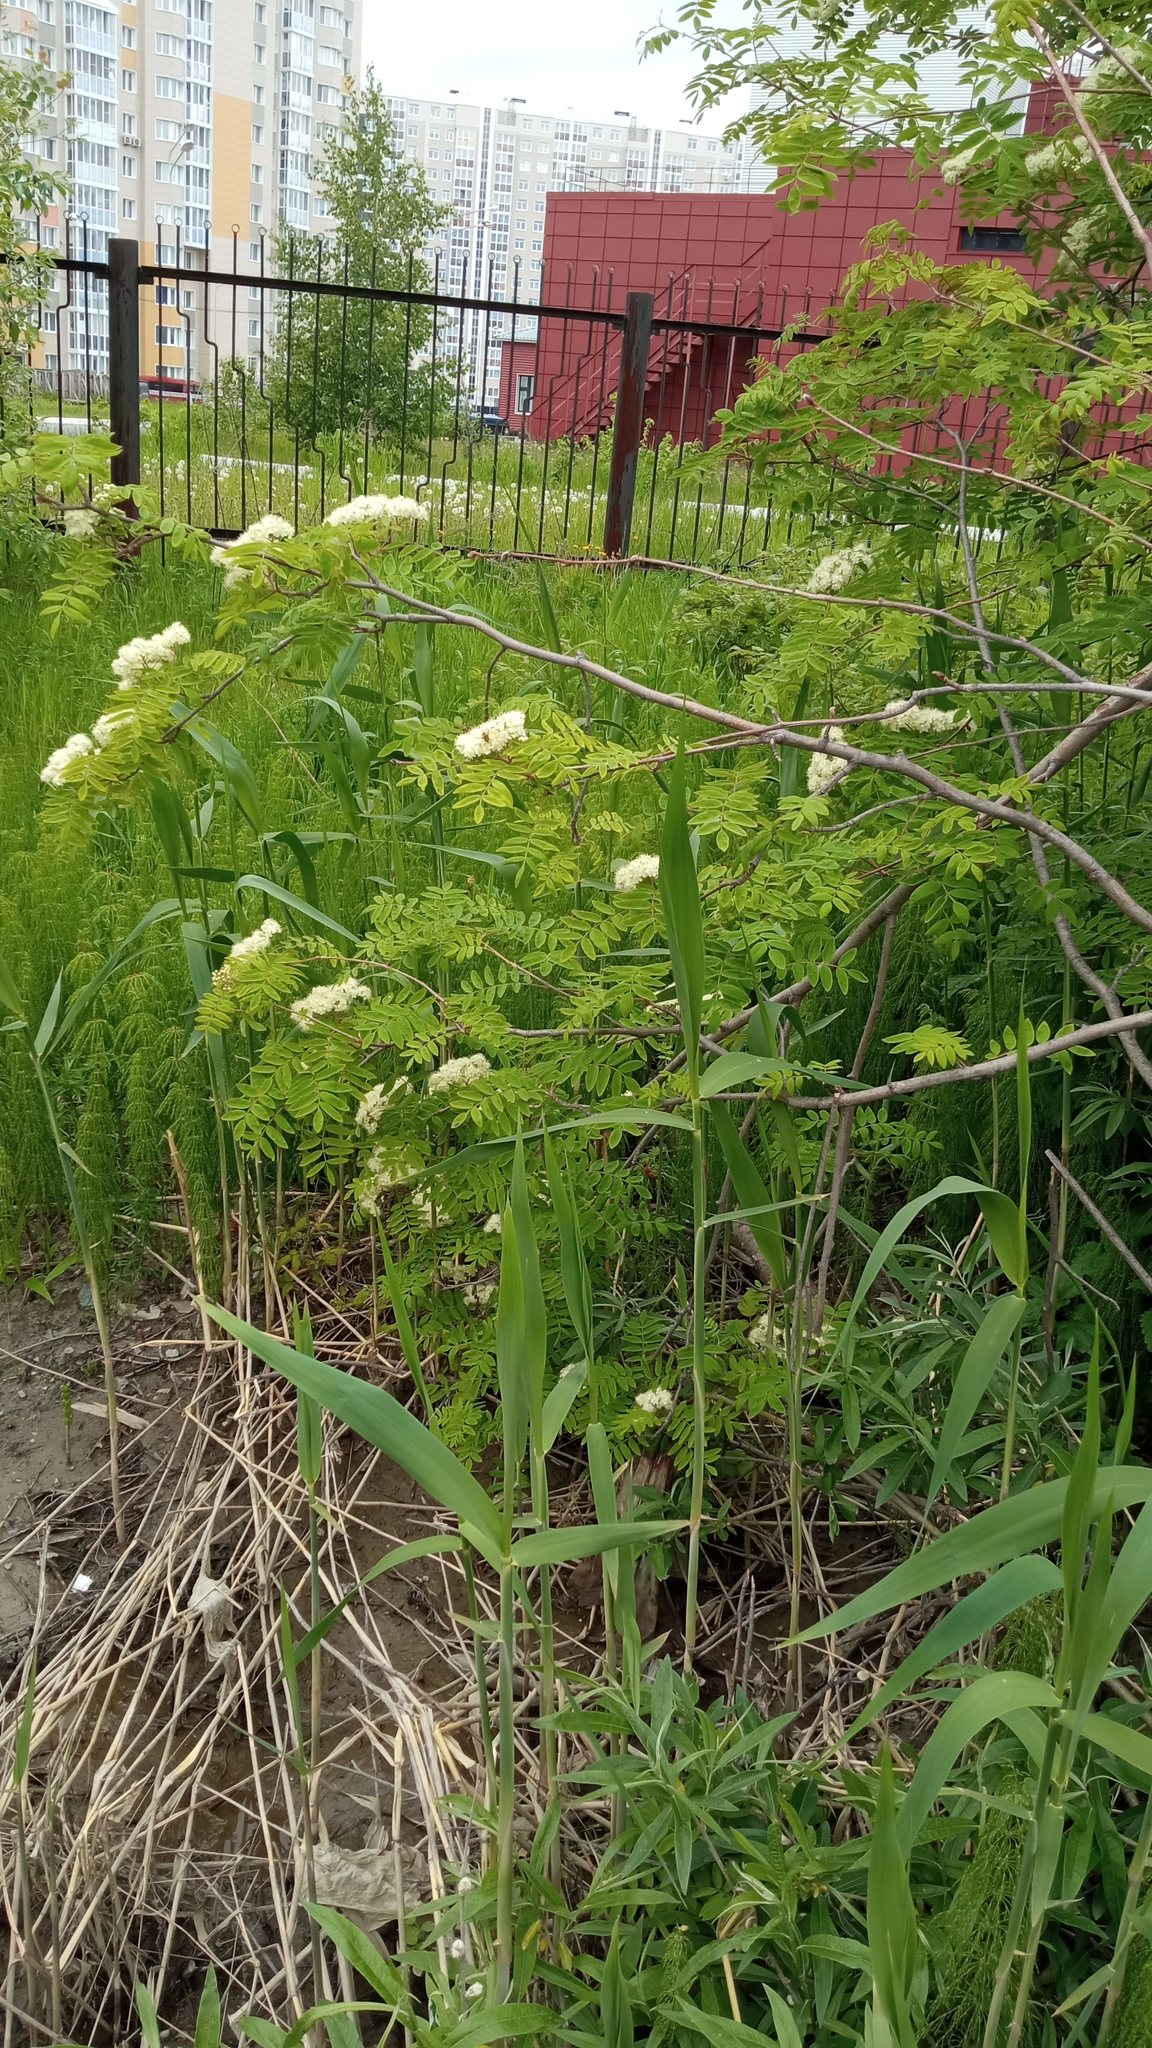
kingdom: Plantae
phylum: Tracheophyta
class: Magnoliopsida
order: Rosales
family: Rosaceae
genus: Sorbus
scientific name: Sorbus aucuparia
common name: Rowan
